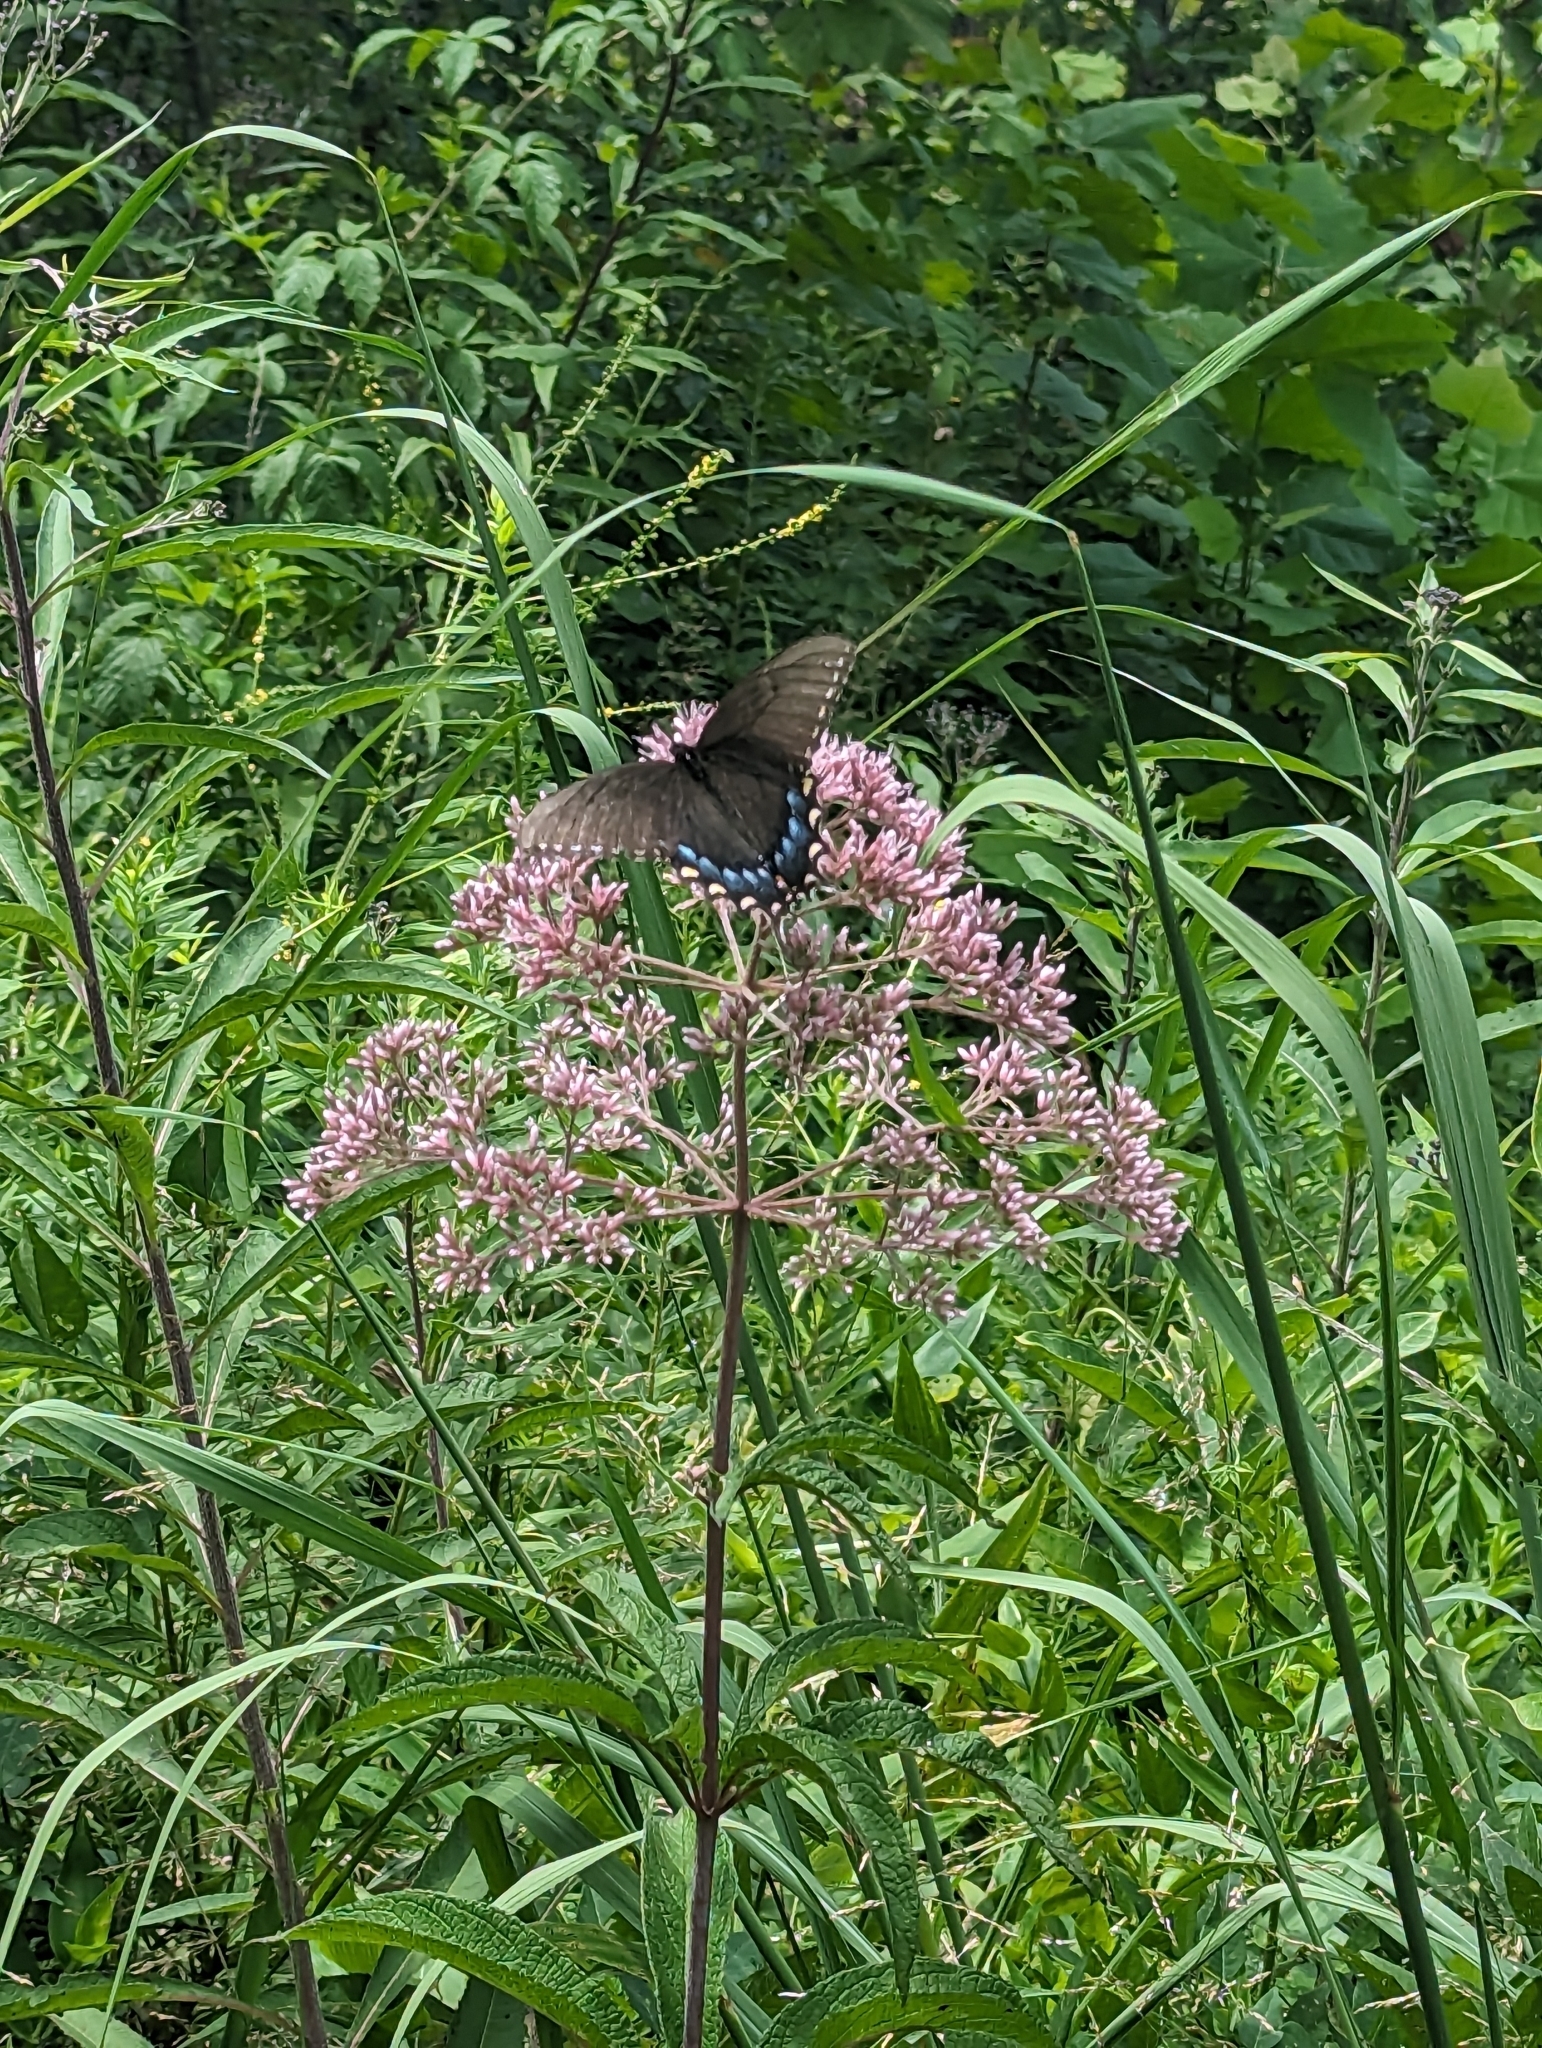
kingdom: Animalia
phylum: Arthropoda
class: Insecta
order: Lepidoptera
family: Papilionidae
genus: Papilio
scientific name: Papilio glaucus
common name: Tiger swallowtail
